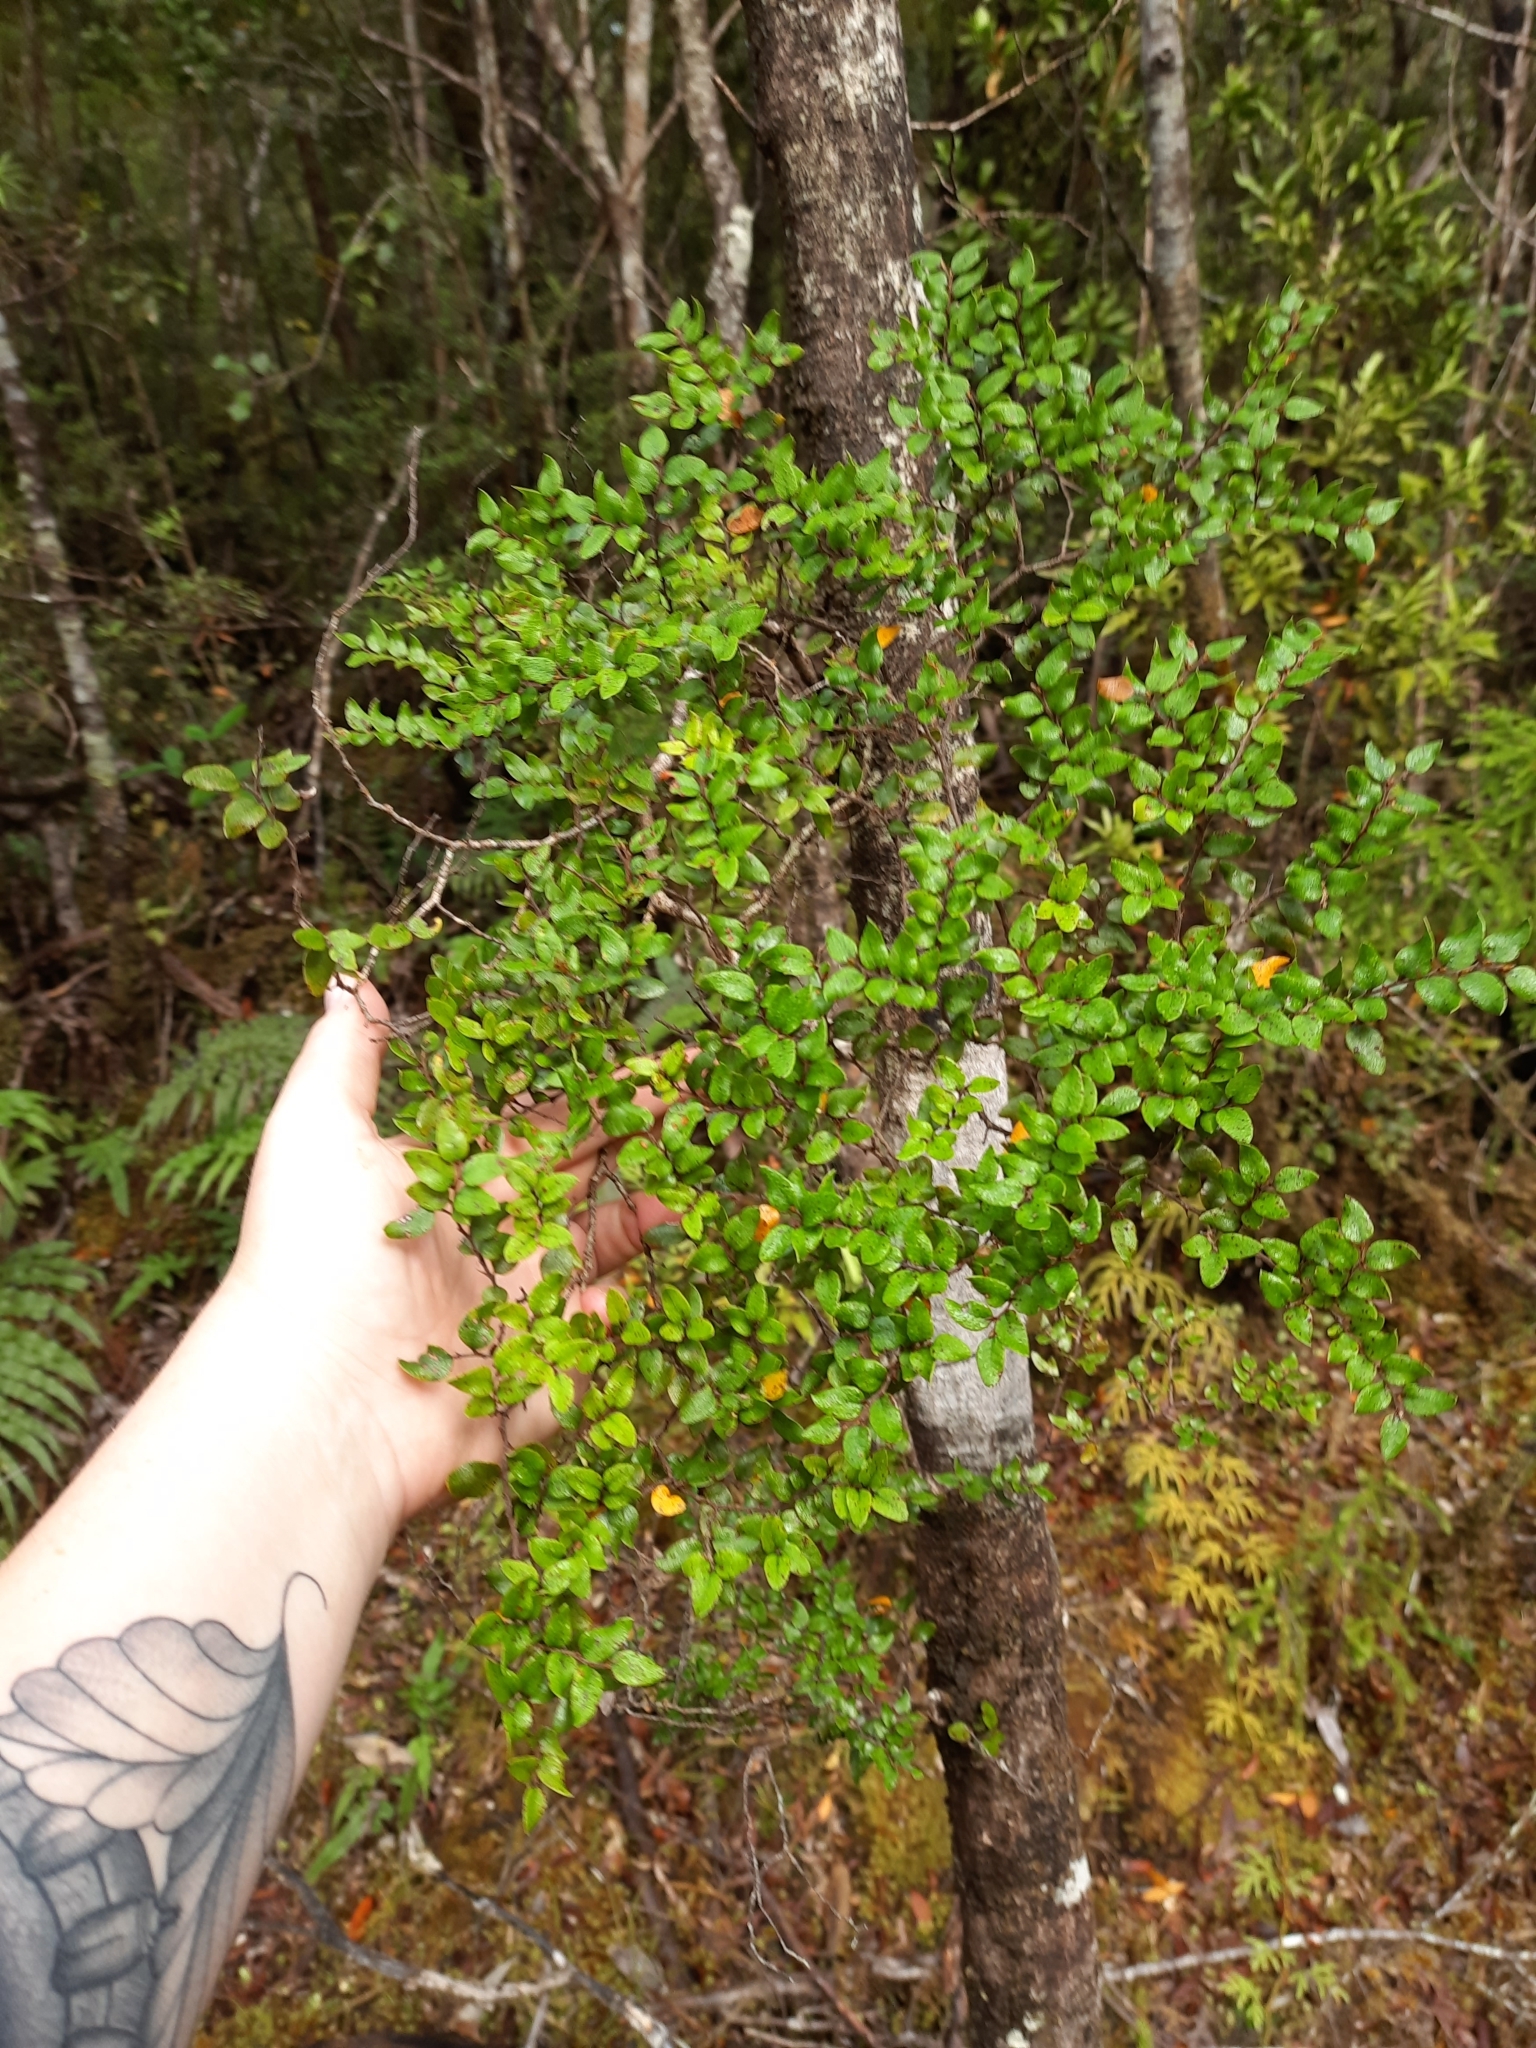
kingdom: Plantae
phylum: Tracheophyta
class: Magnoliopsida
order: Fagales
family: Nothofagaceae
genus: Nothofagus
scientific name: Nothofagus cliffortioides
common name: Mountain beech
